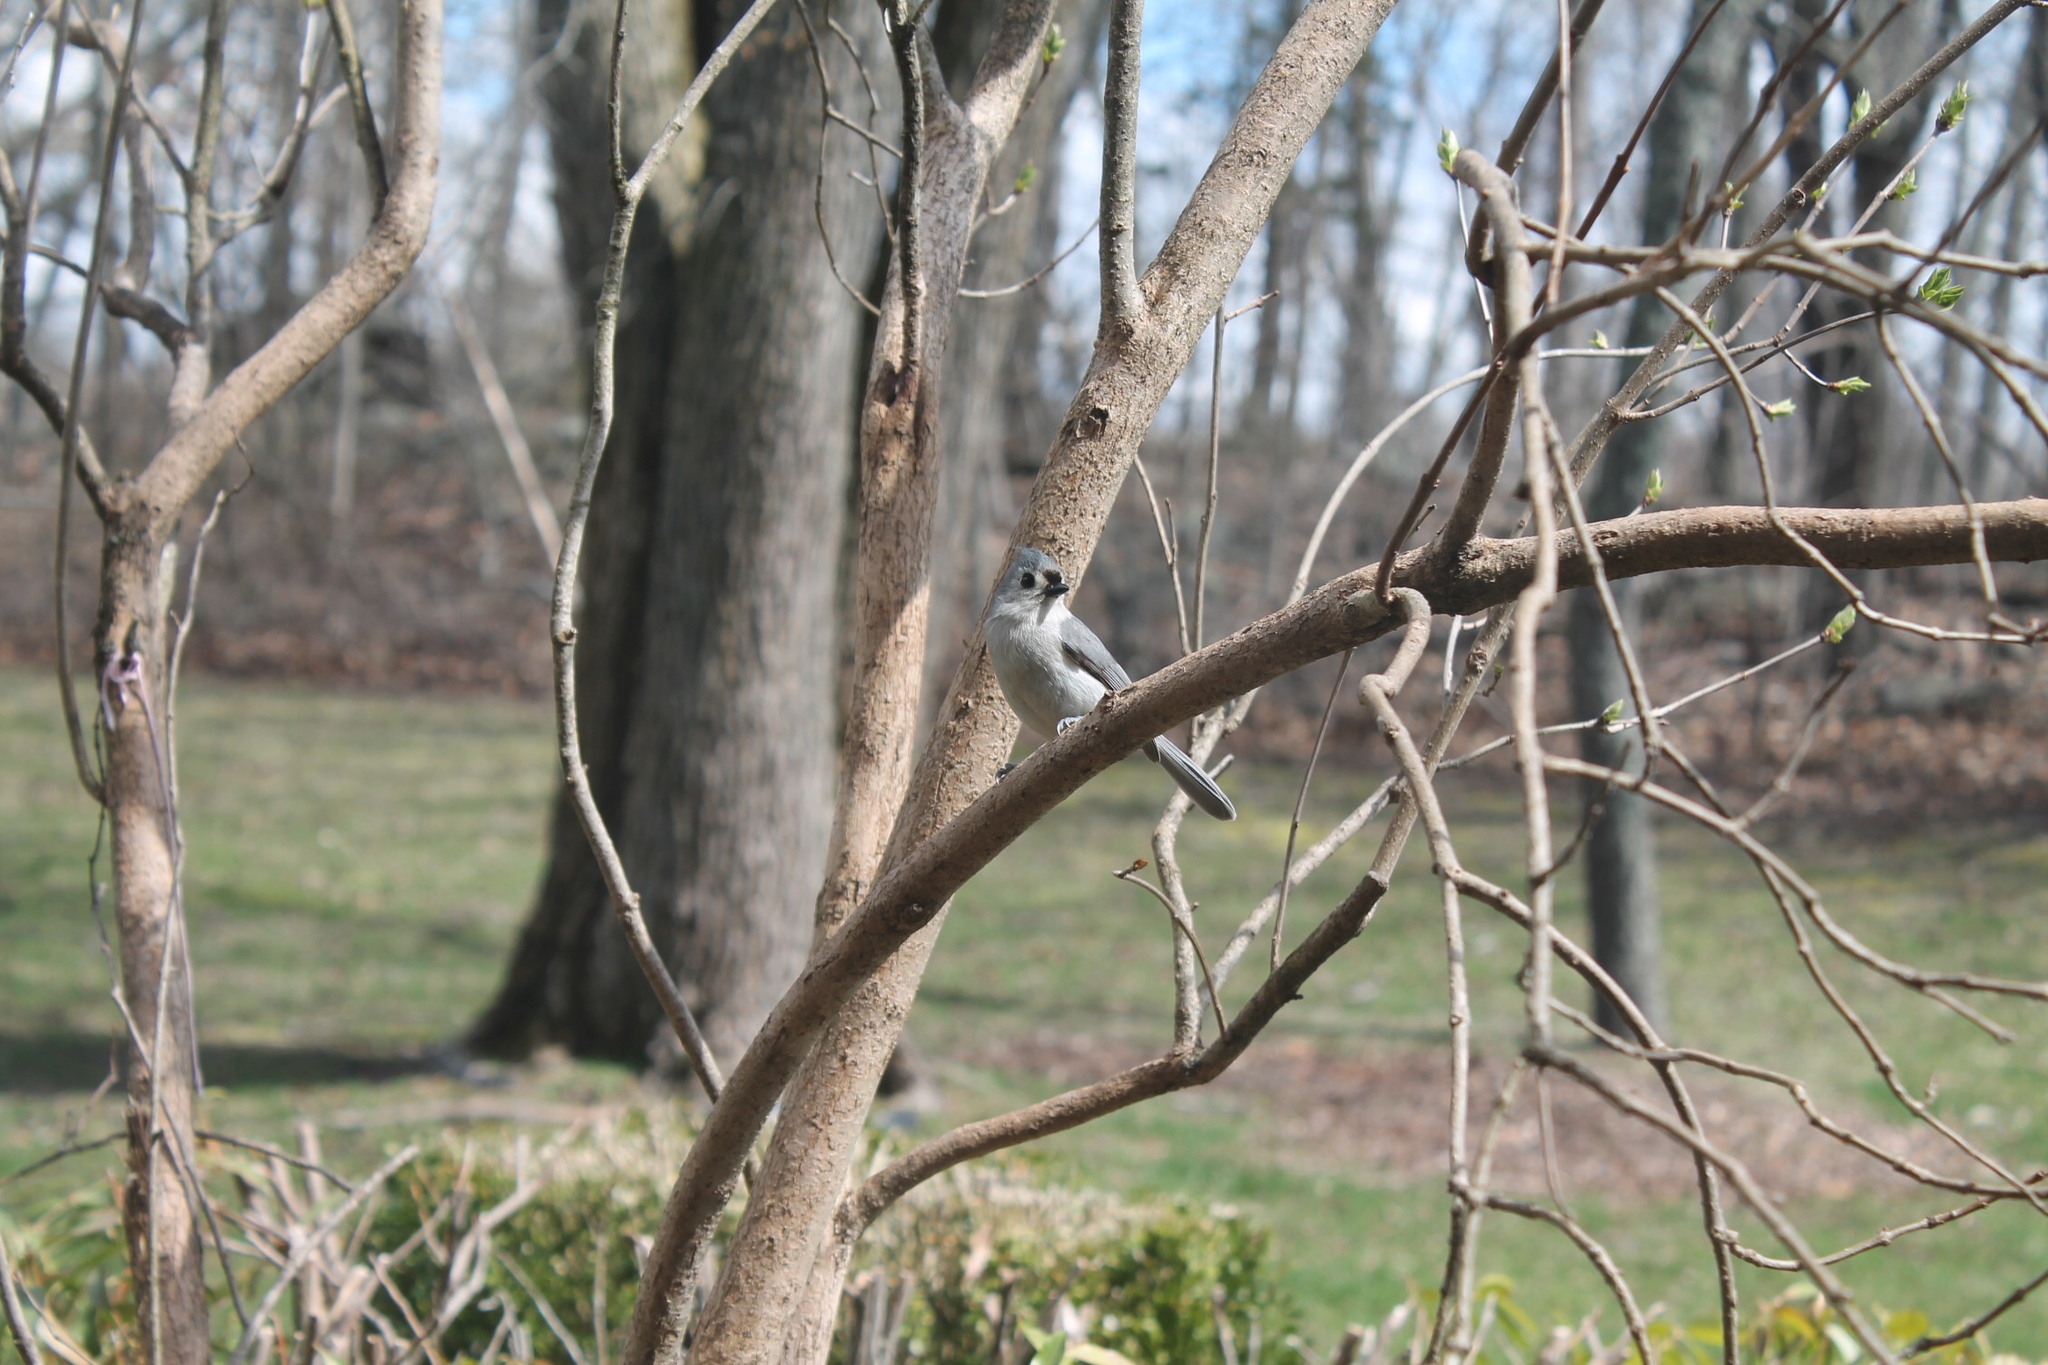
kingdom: Animalia
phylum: Chordata
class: Aves
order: Passeriformes
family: Paridae
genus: Baeolophus
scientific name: Baeolophus bicolor
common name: Tufted titmouse
